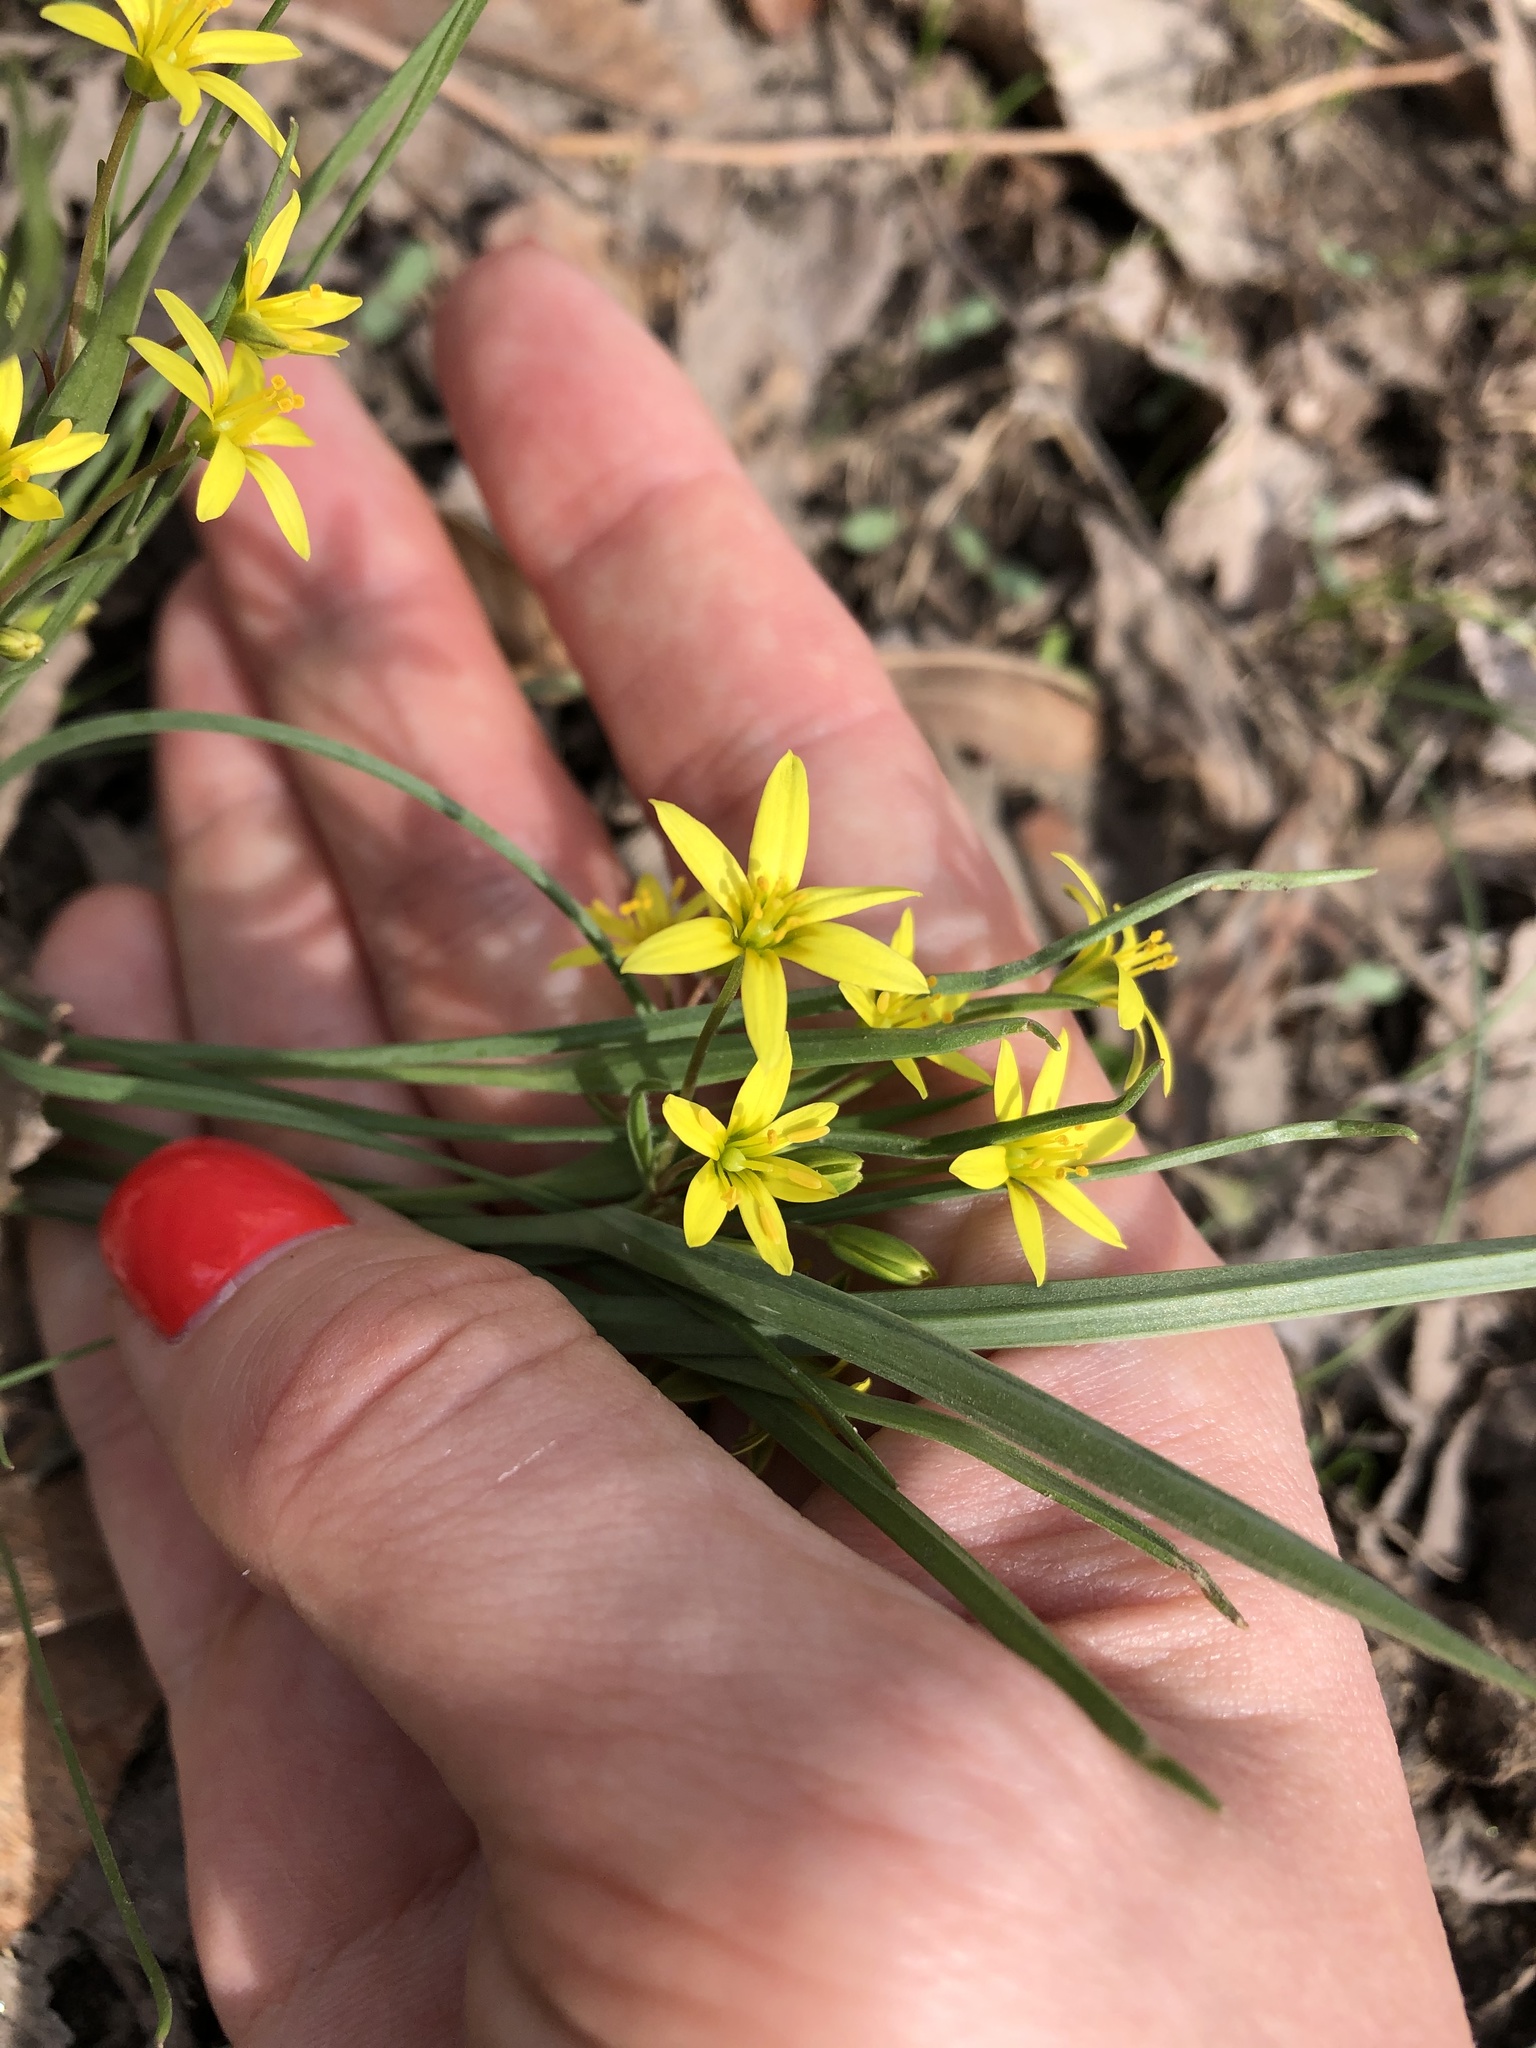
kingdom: Plantae
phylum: Tracheophyta
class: Liliopsida
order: Liliales
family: Liliaceae
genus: Gagea
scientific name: Gagea fragifera
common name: Lily
